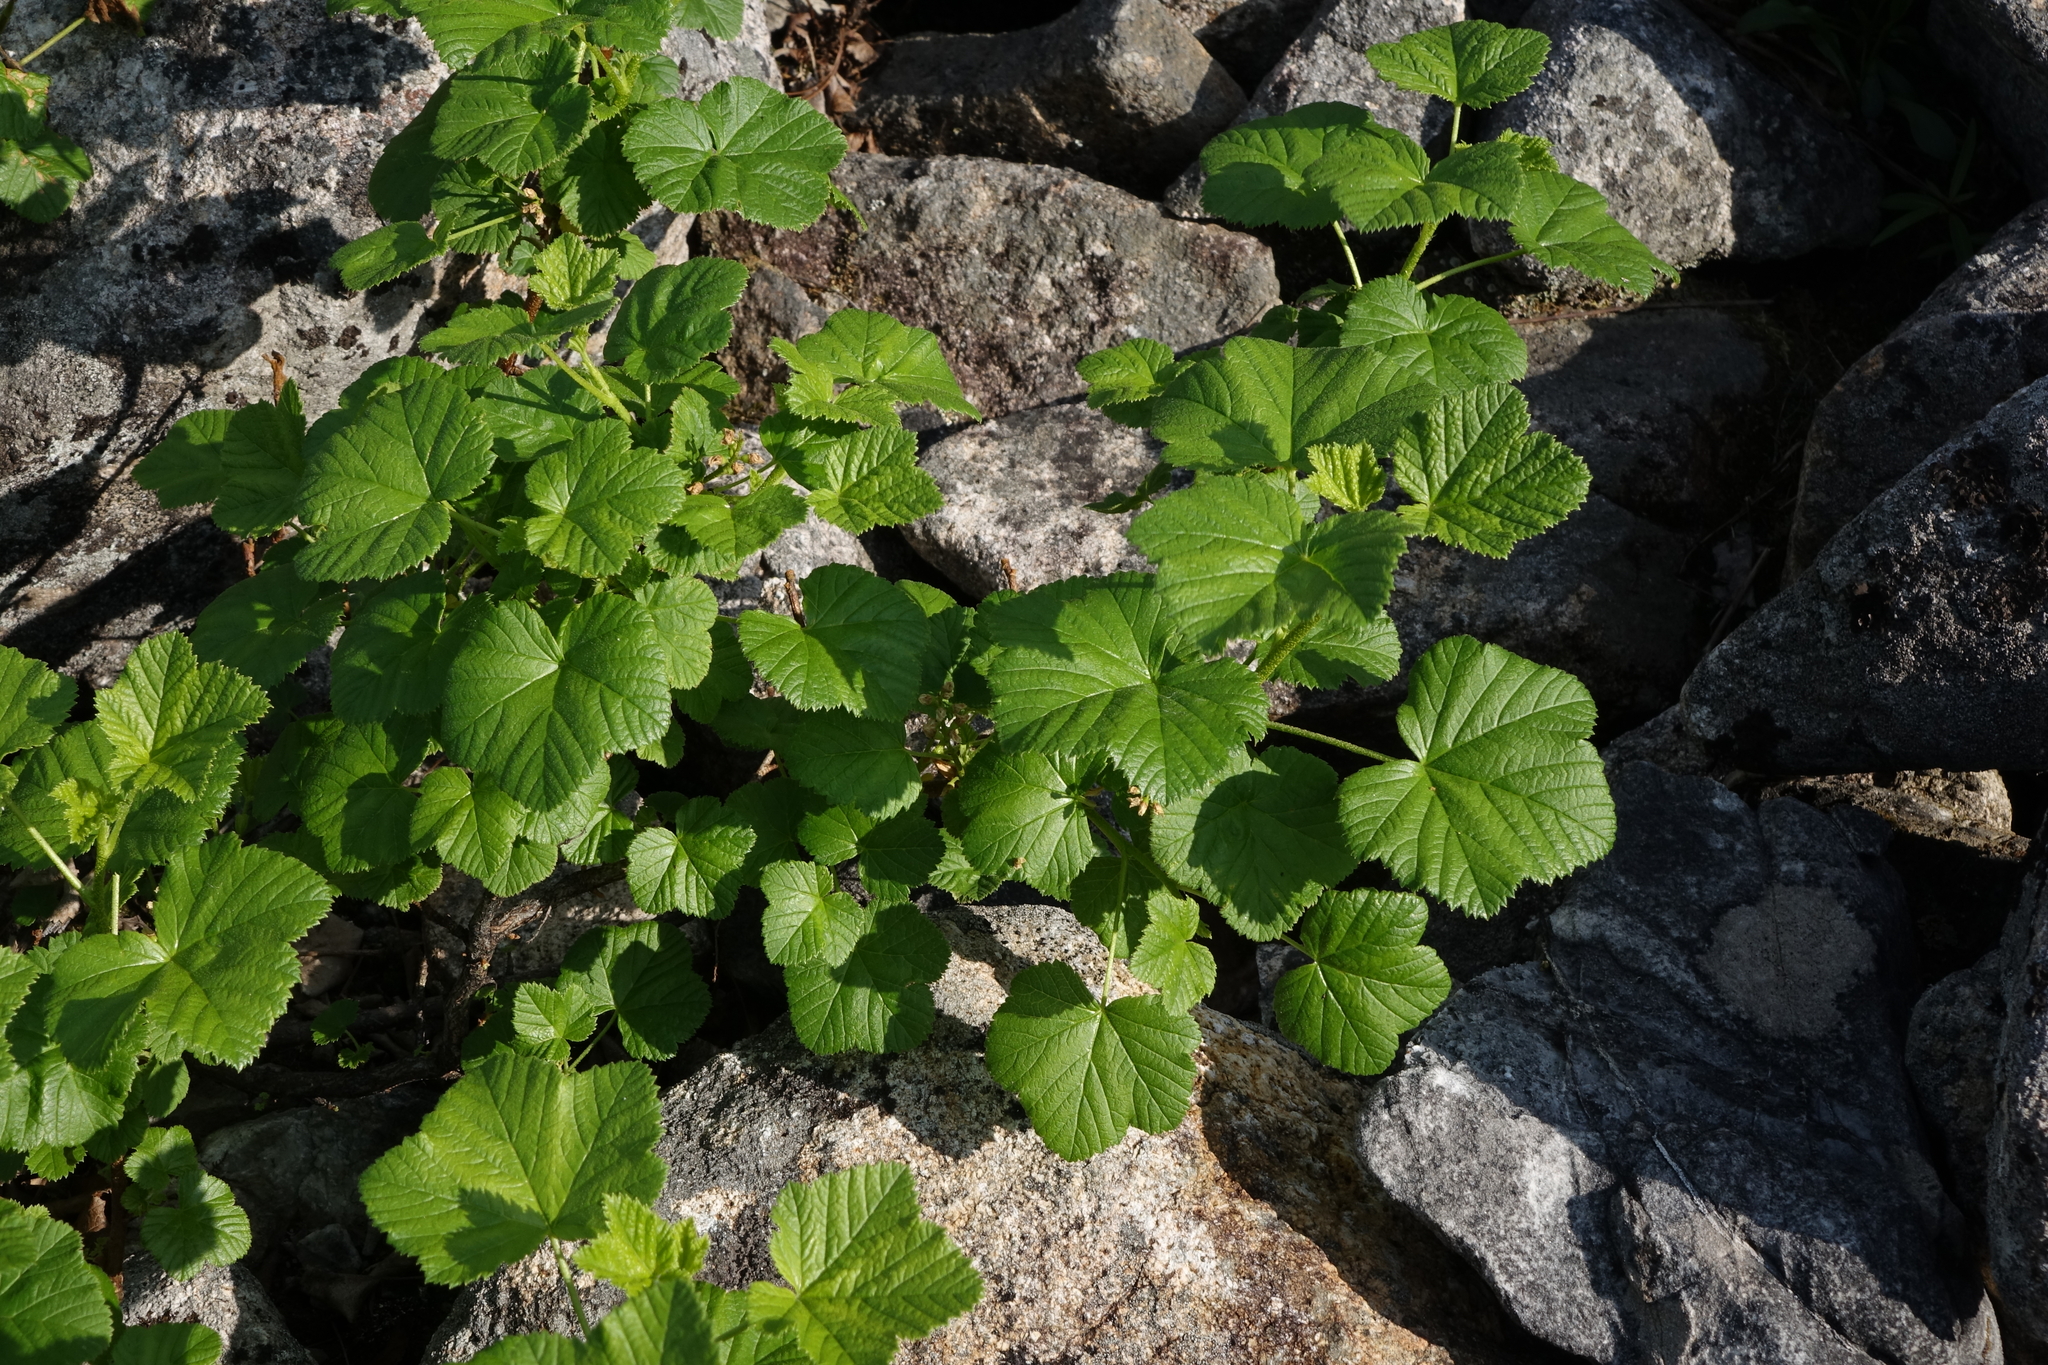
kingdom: Plantae
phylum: Tracheophyta
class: Magnoliopsida
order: Saxifragales
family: Grossulariaceae
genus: Ribes
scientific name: Ribes fragrans
